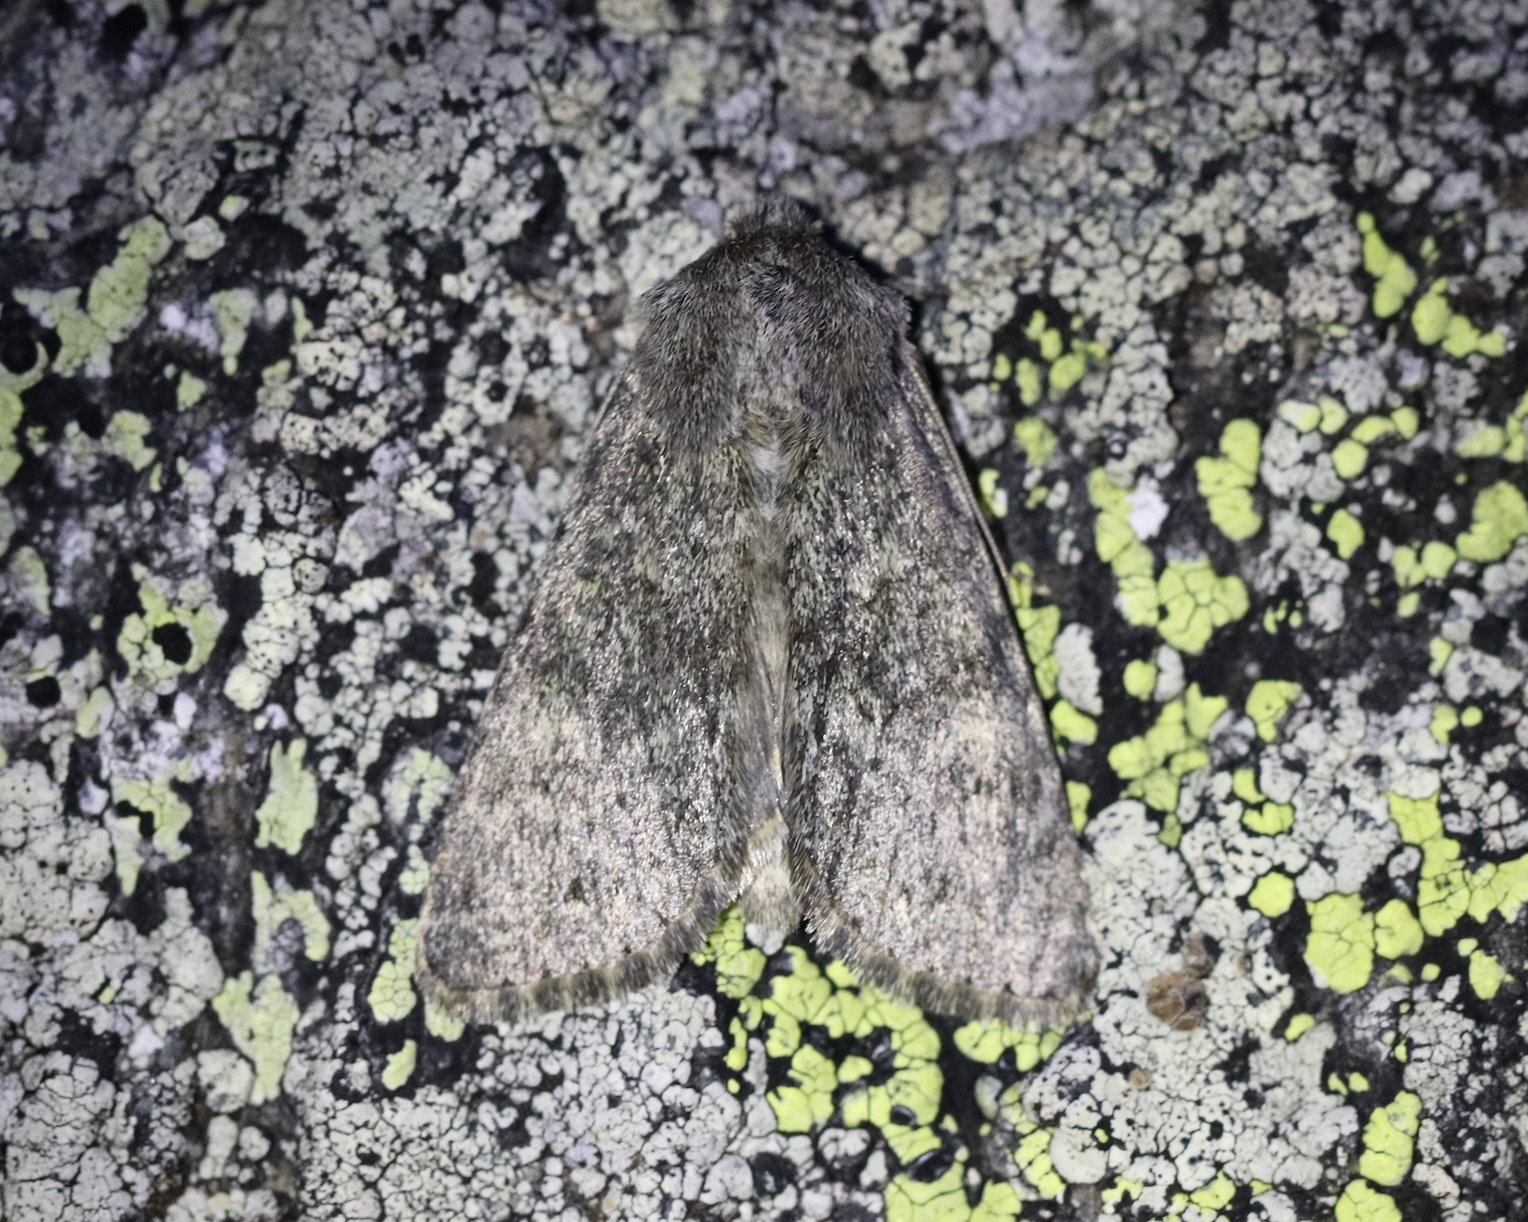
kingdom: Animalia
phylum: Arthropoda
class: Insecta
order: Lepidoptera
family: Noctuidae
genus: Apamea
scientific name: Apamea zeta
